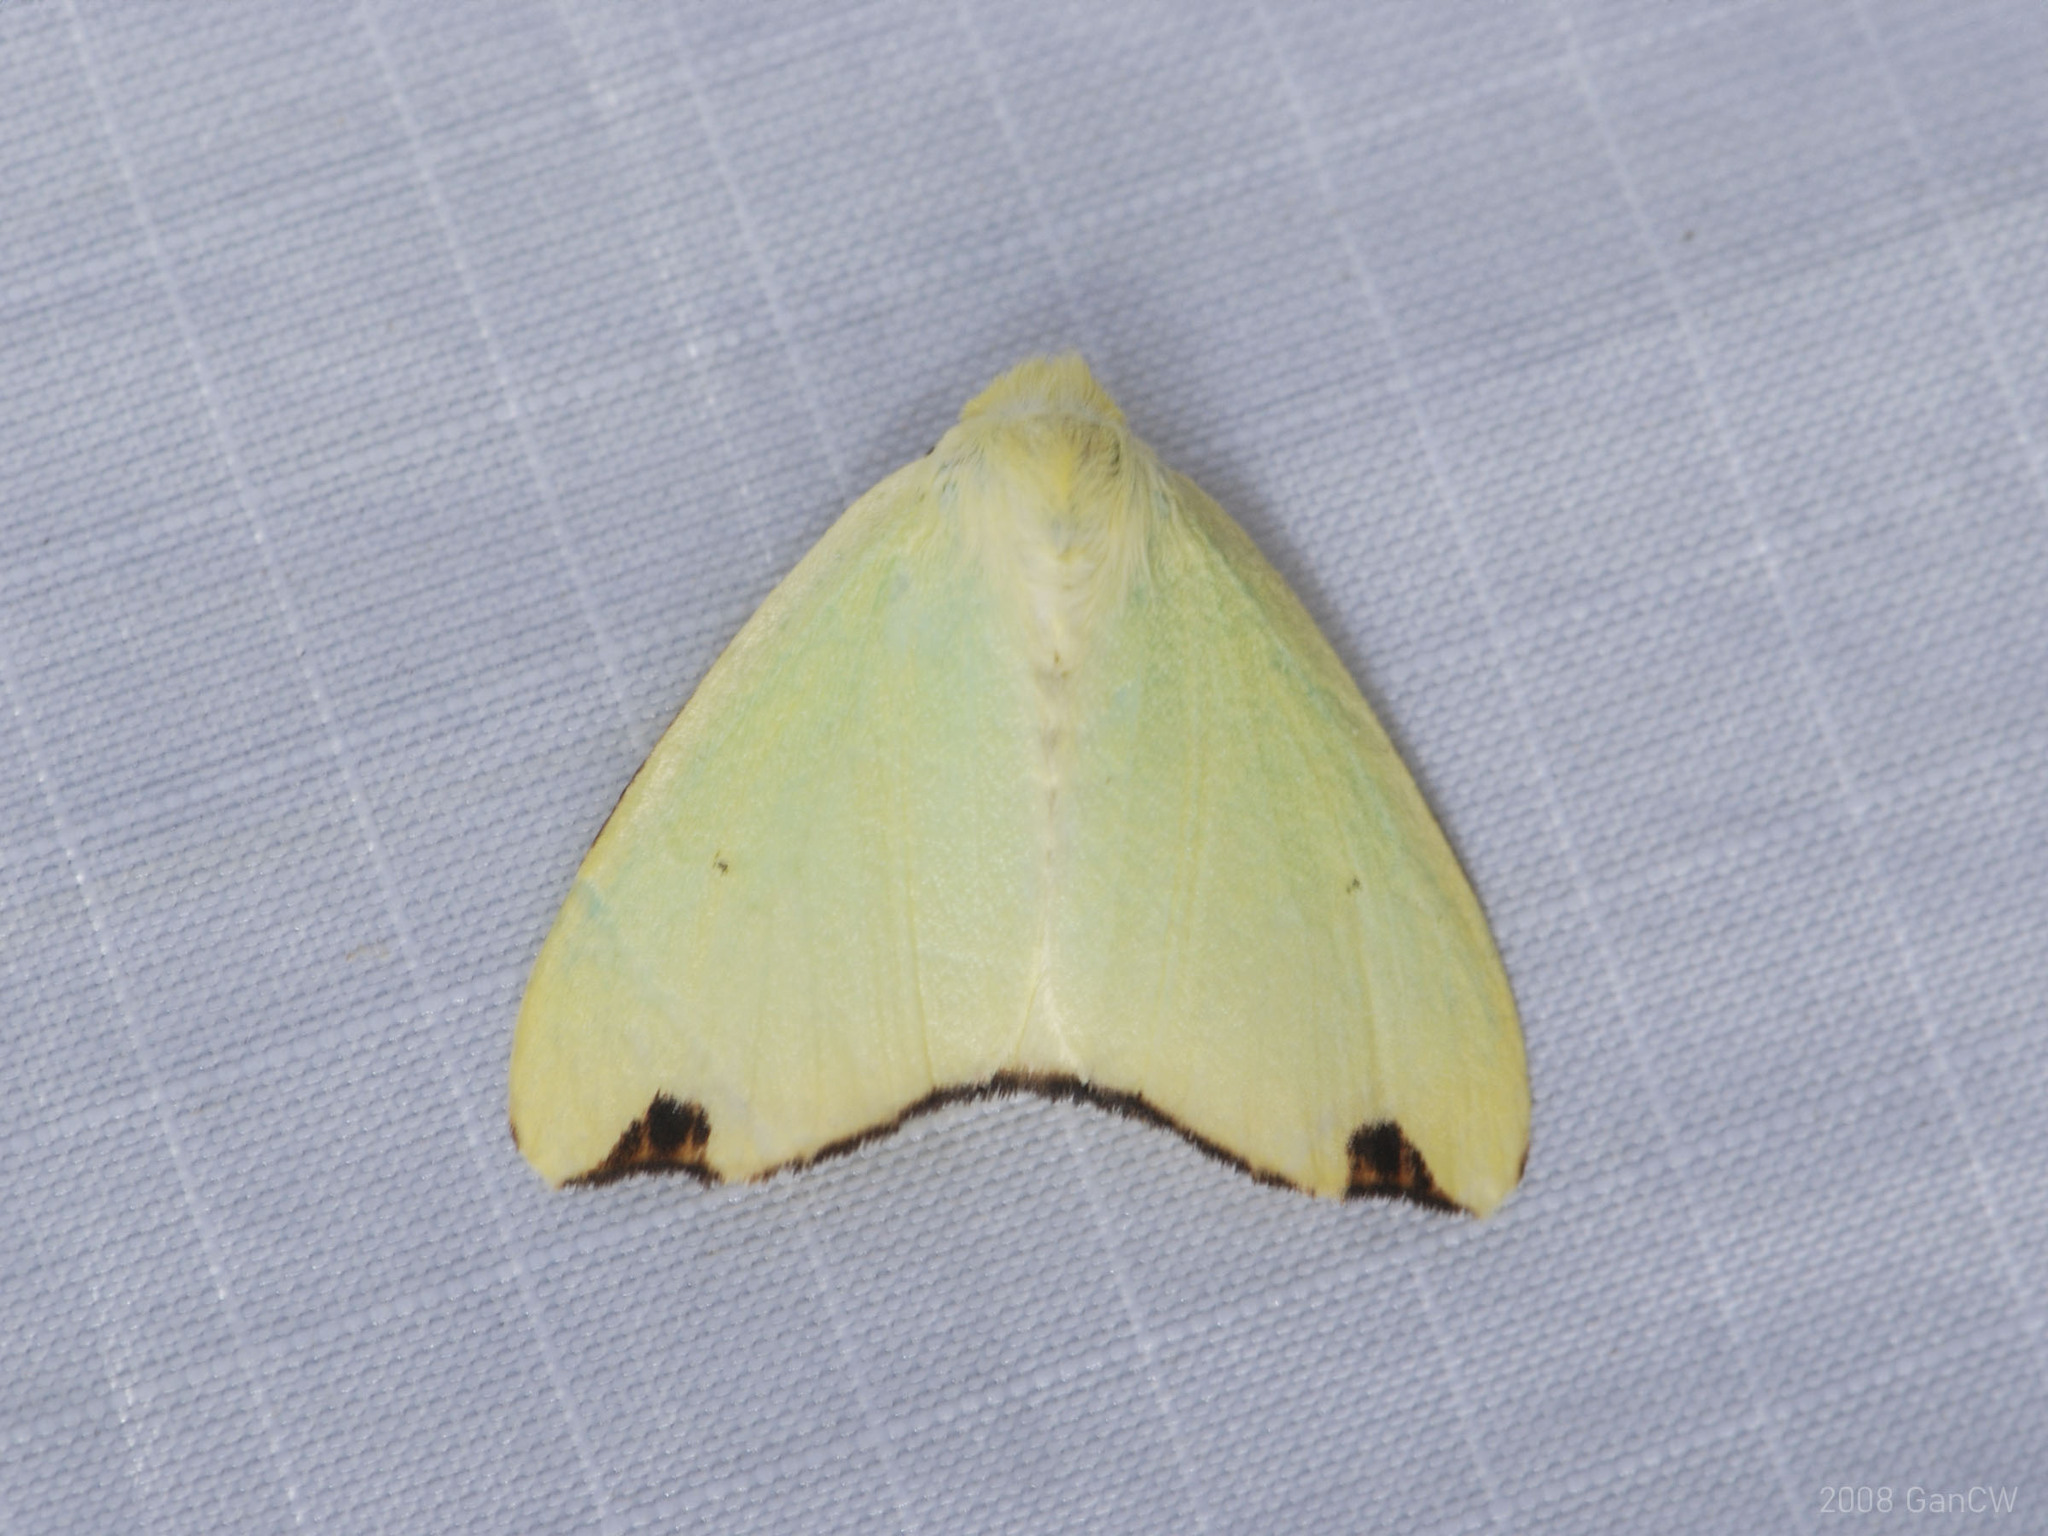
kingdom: Animalia
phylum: Arthropoda
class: Insecta
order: Lepidoptera
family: Erebidae
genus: Arctornis
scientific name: Arctornis rutila
